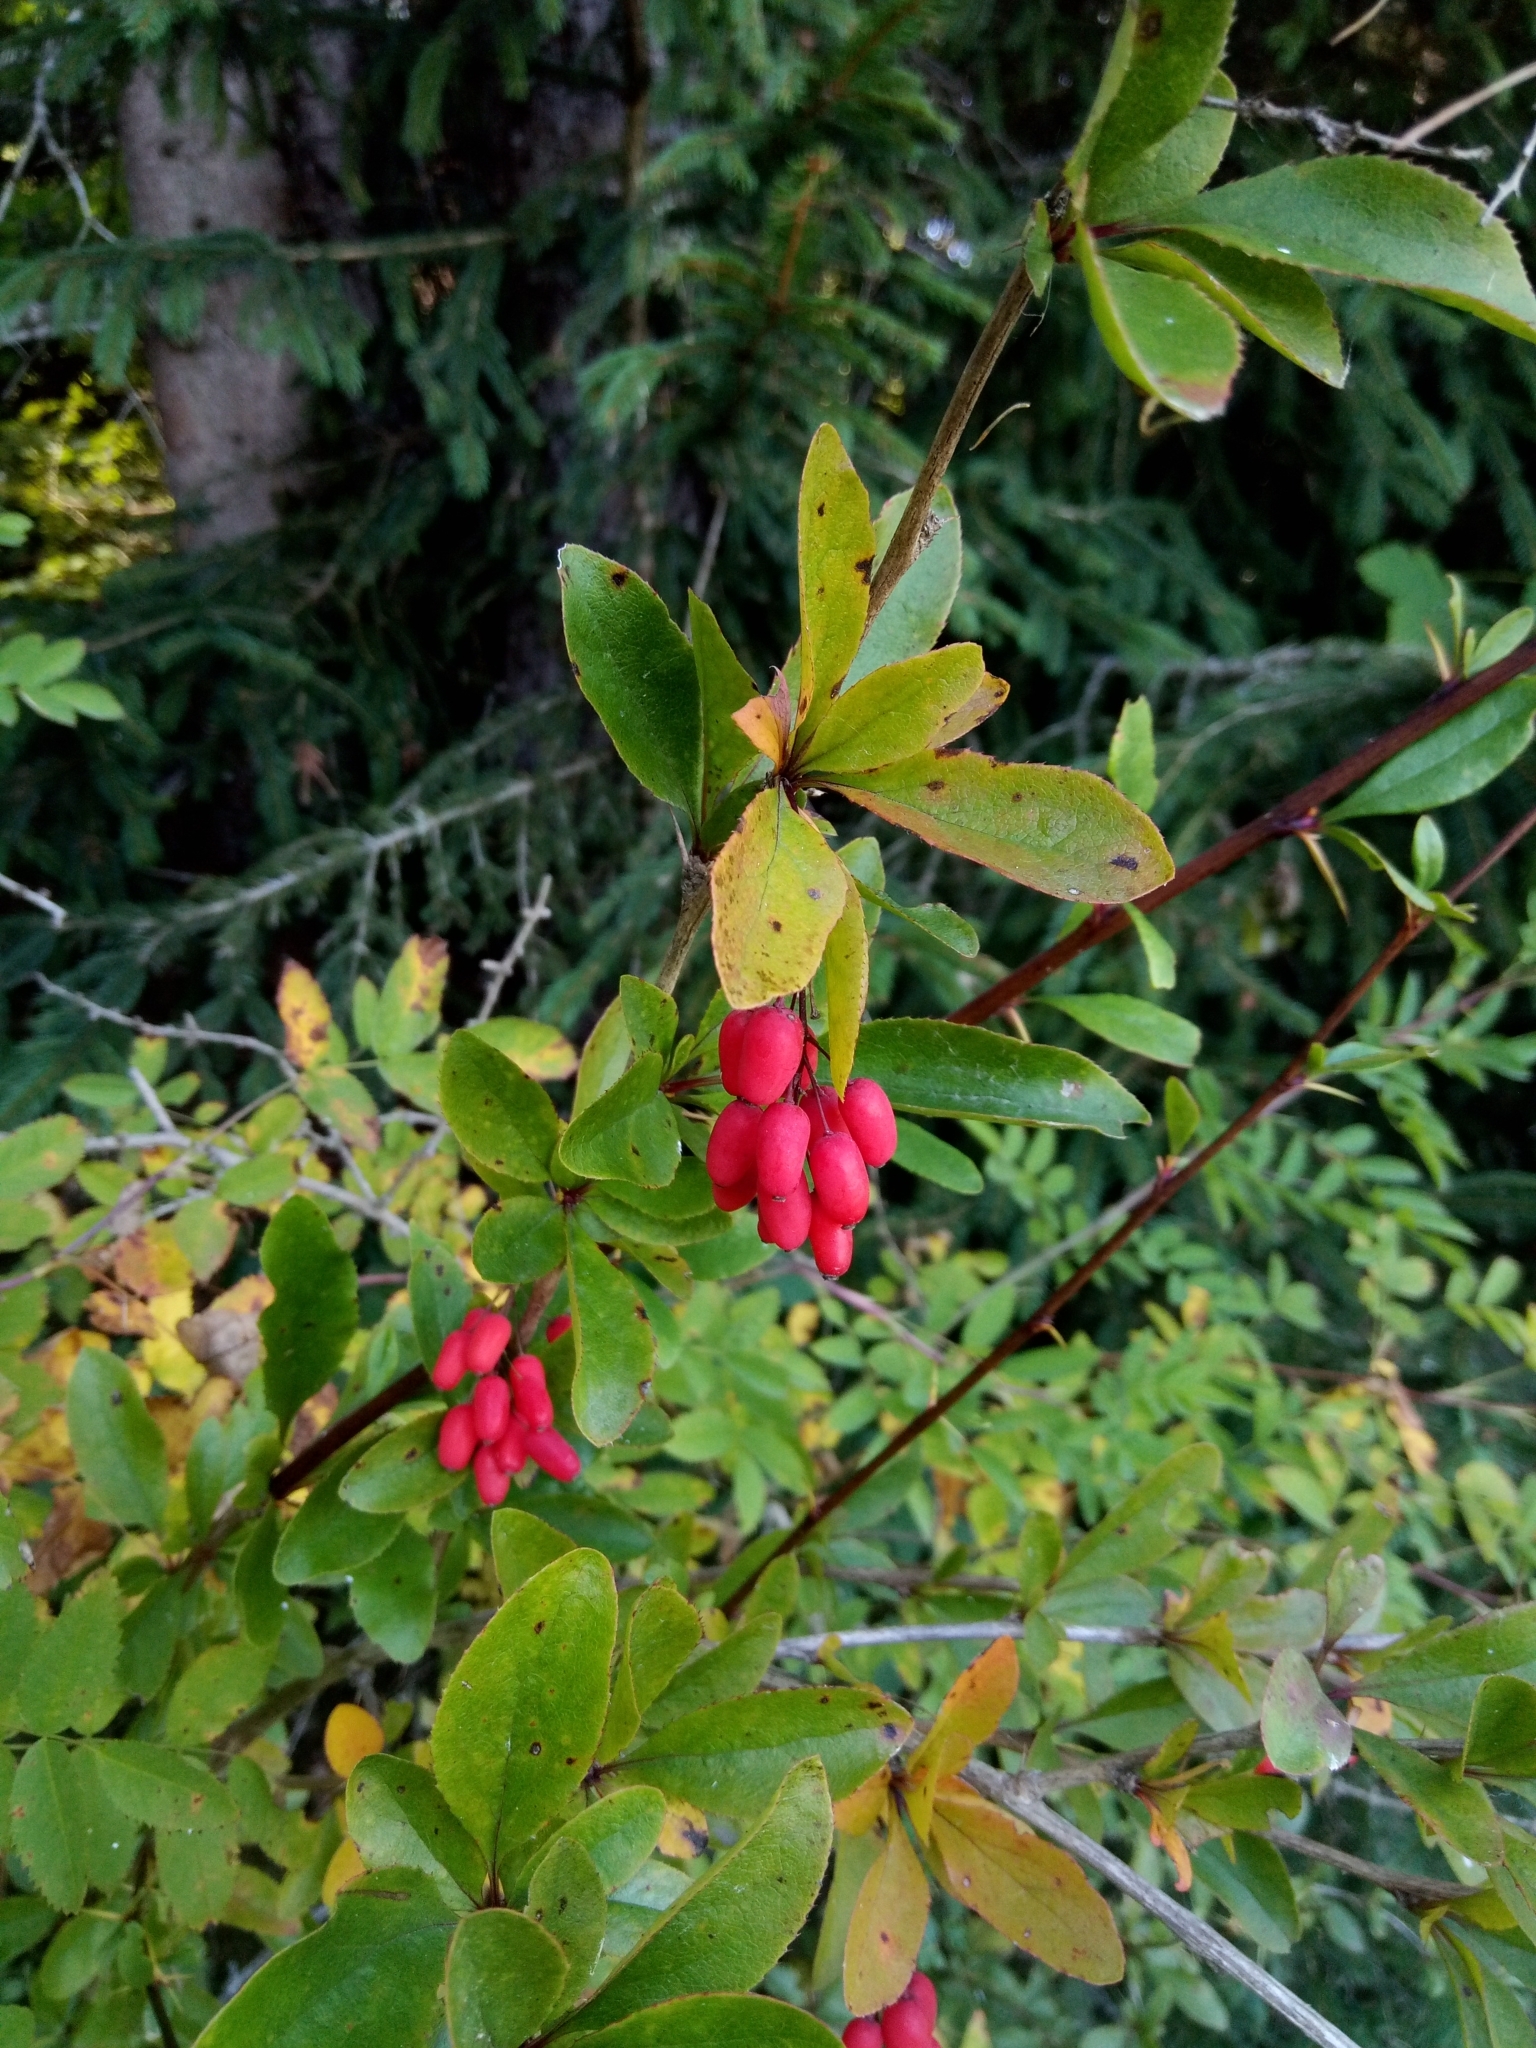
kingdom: Plantae
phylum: Tracheophyta
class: Magnoliopsida
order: Ranunculales
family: Berberidaceae
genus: Berberis
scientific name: Berberis vulgaris
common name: Barberry
